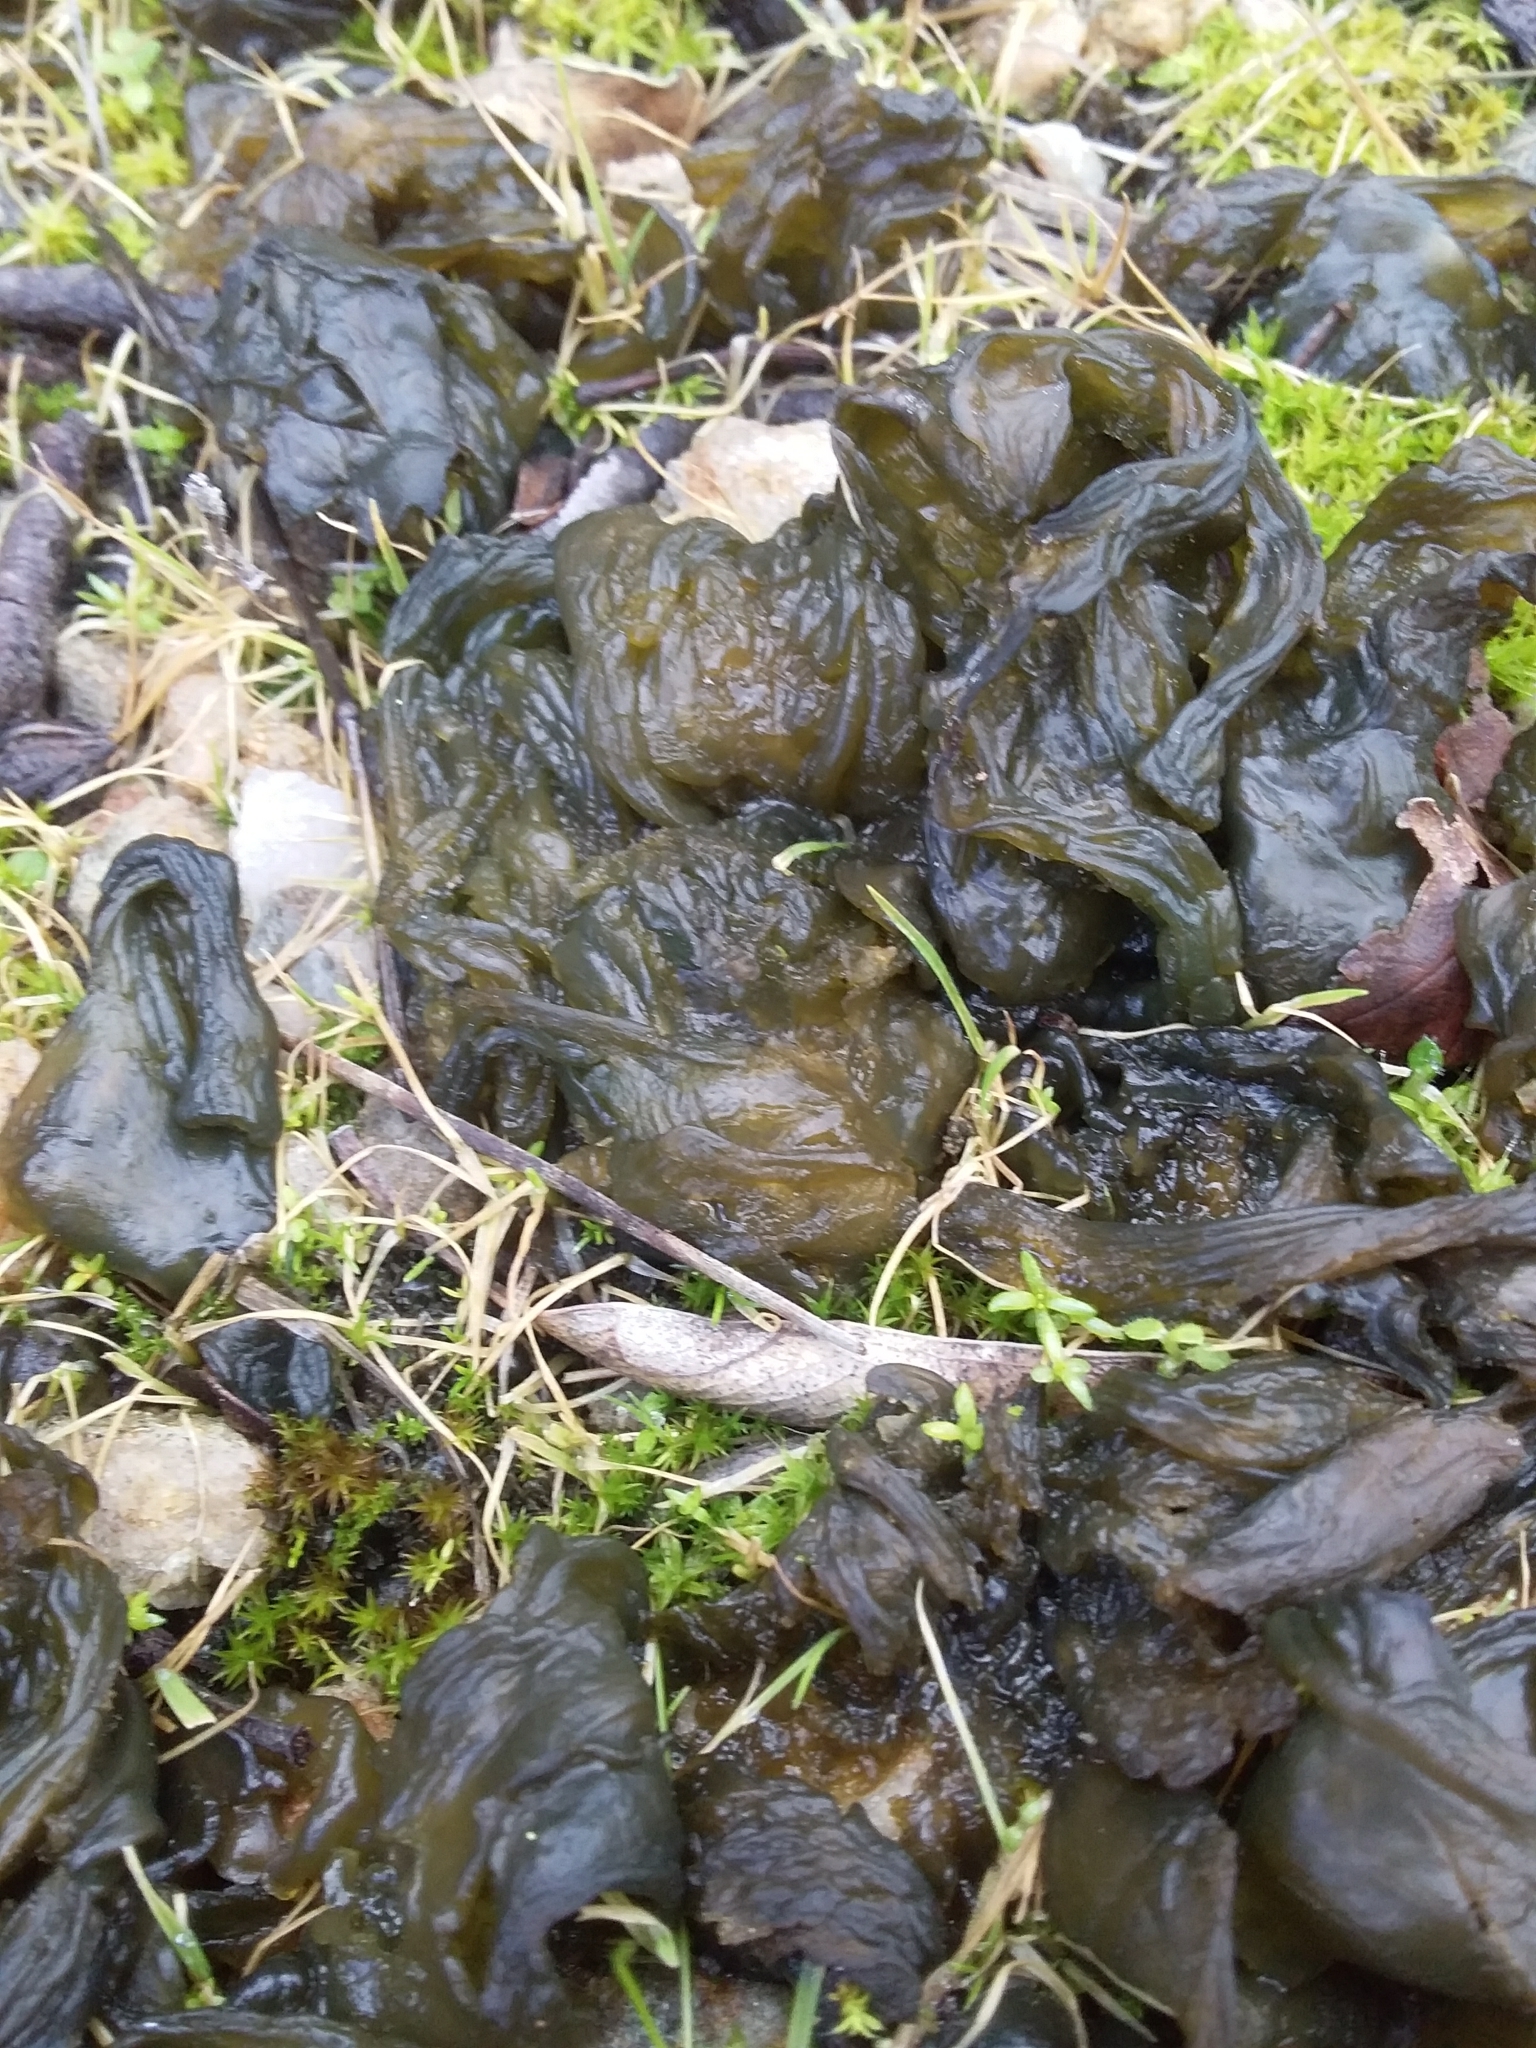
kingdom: Bacteria
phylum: Cyanobacteria
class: Cyanobacteriia
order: Cyanobacteriales
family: Nostocaceae
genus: Nostoc
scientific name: Nostoc commune
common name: Star jelly
